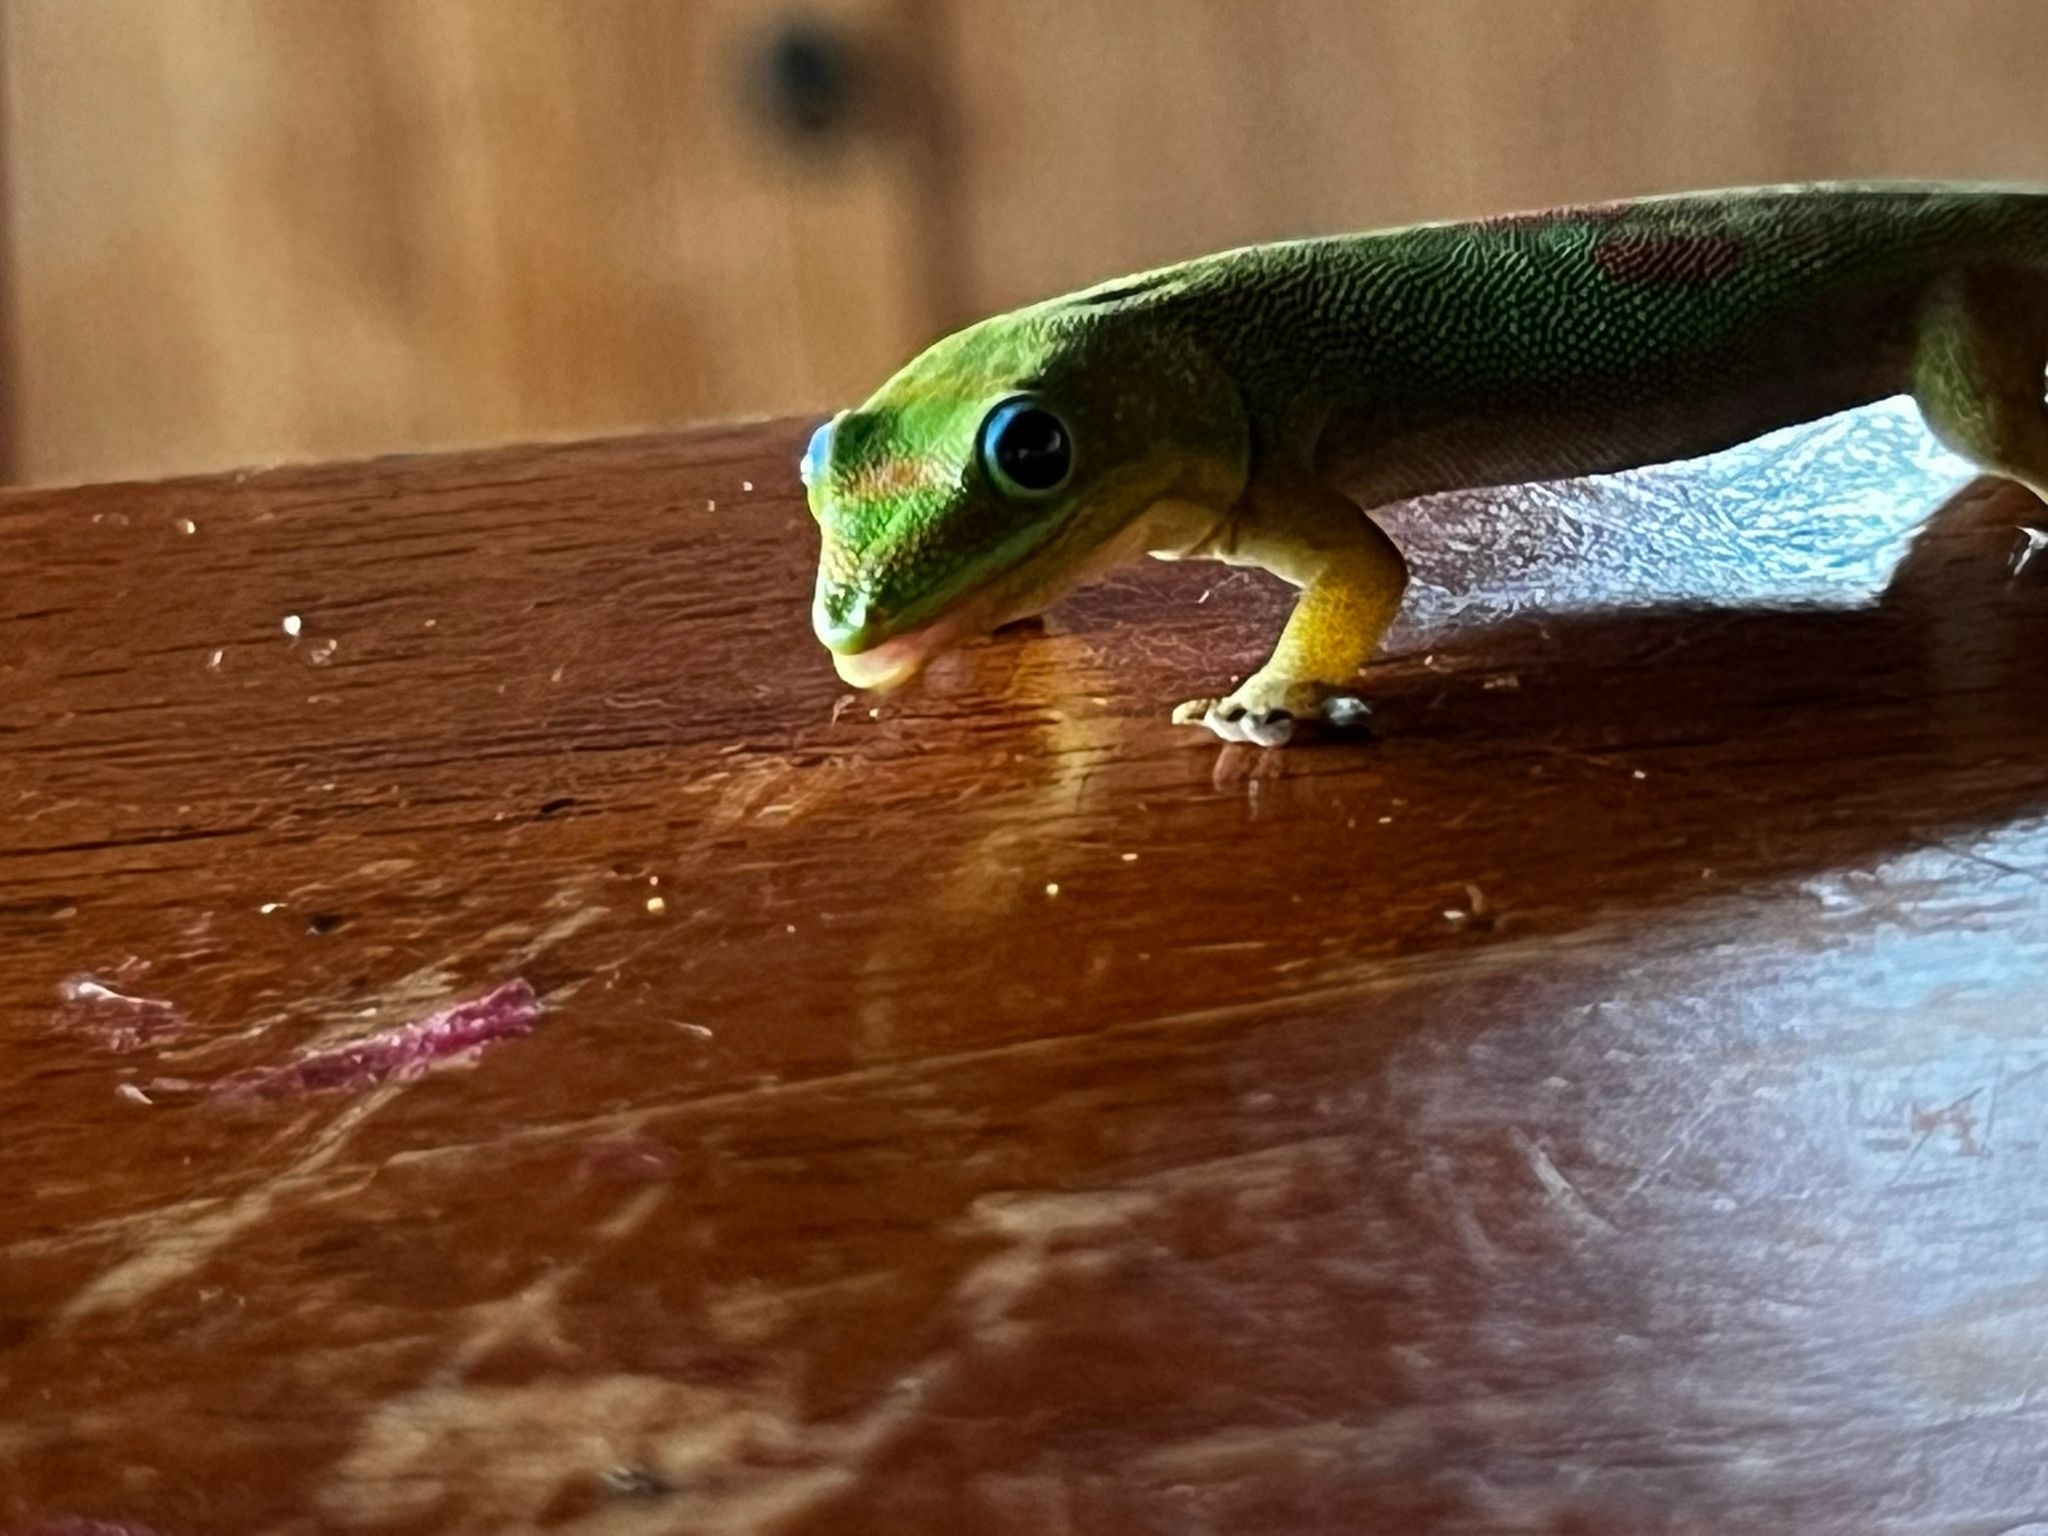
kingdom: Animalia
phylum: Chordata
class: Squamata
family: Gekkonidae
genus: Phelsuma
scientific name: Phelsuma laticauda
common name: Gold dust day gecko
